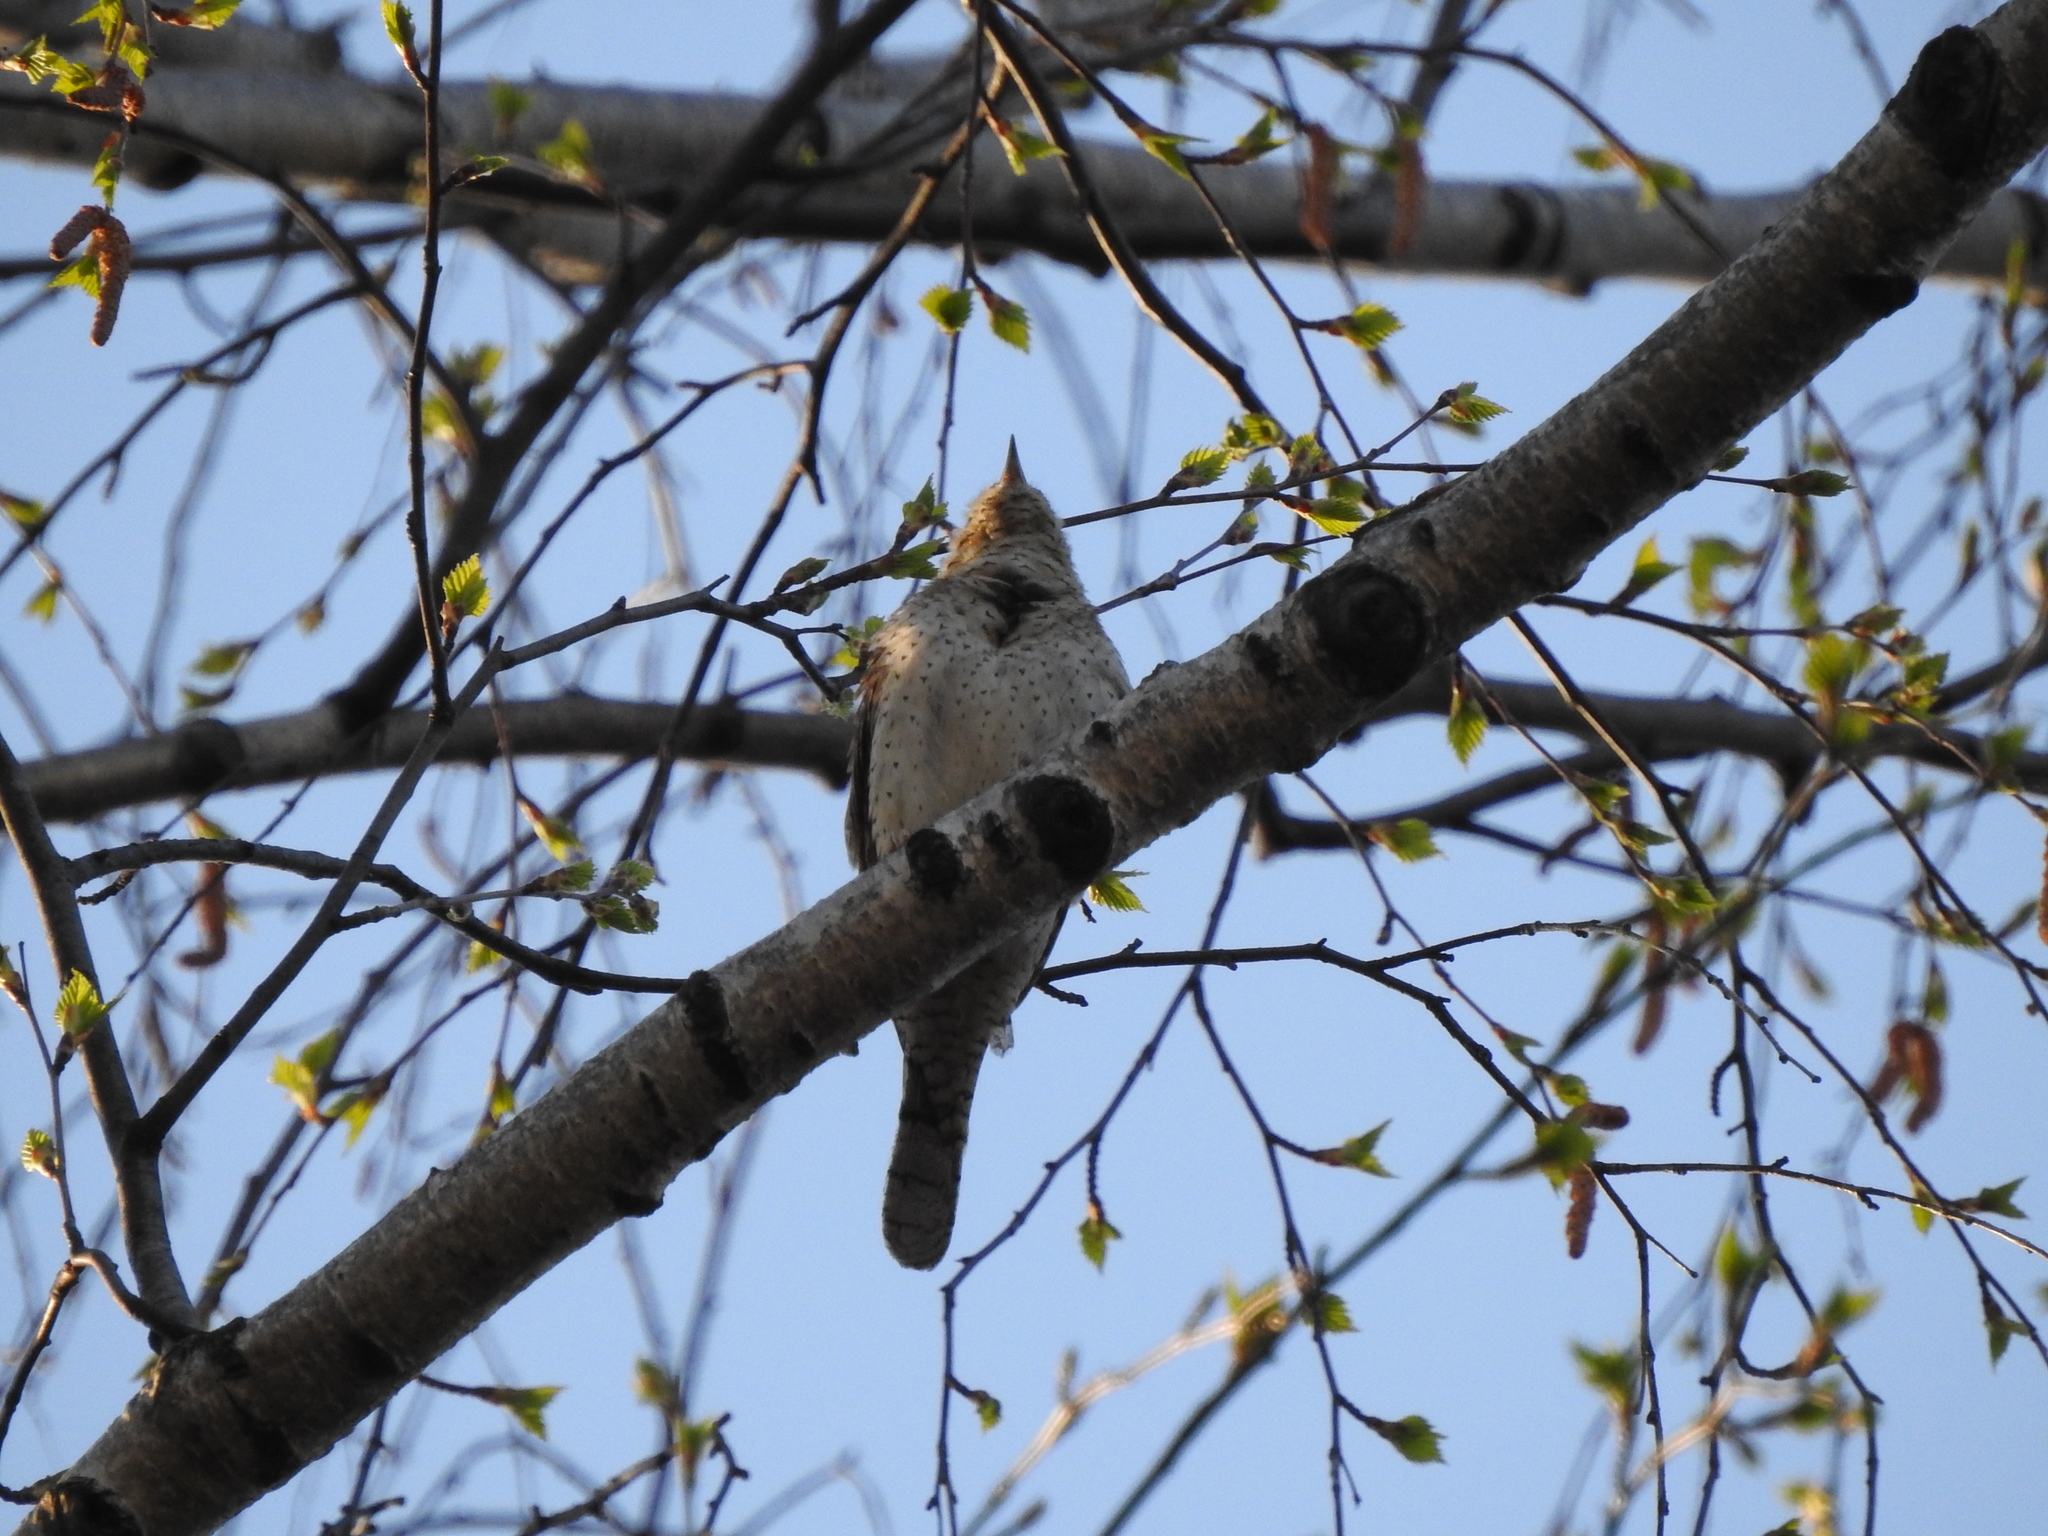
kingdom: Animalia
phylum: Chordata
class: Aves
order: Piciformes
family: Picidae
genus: Jynx
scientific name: Jynx torquilla
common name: Eurasian wryneck
